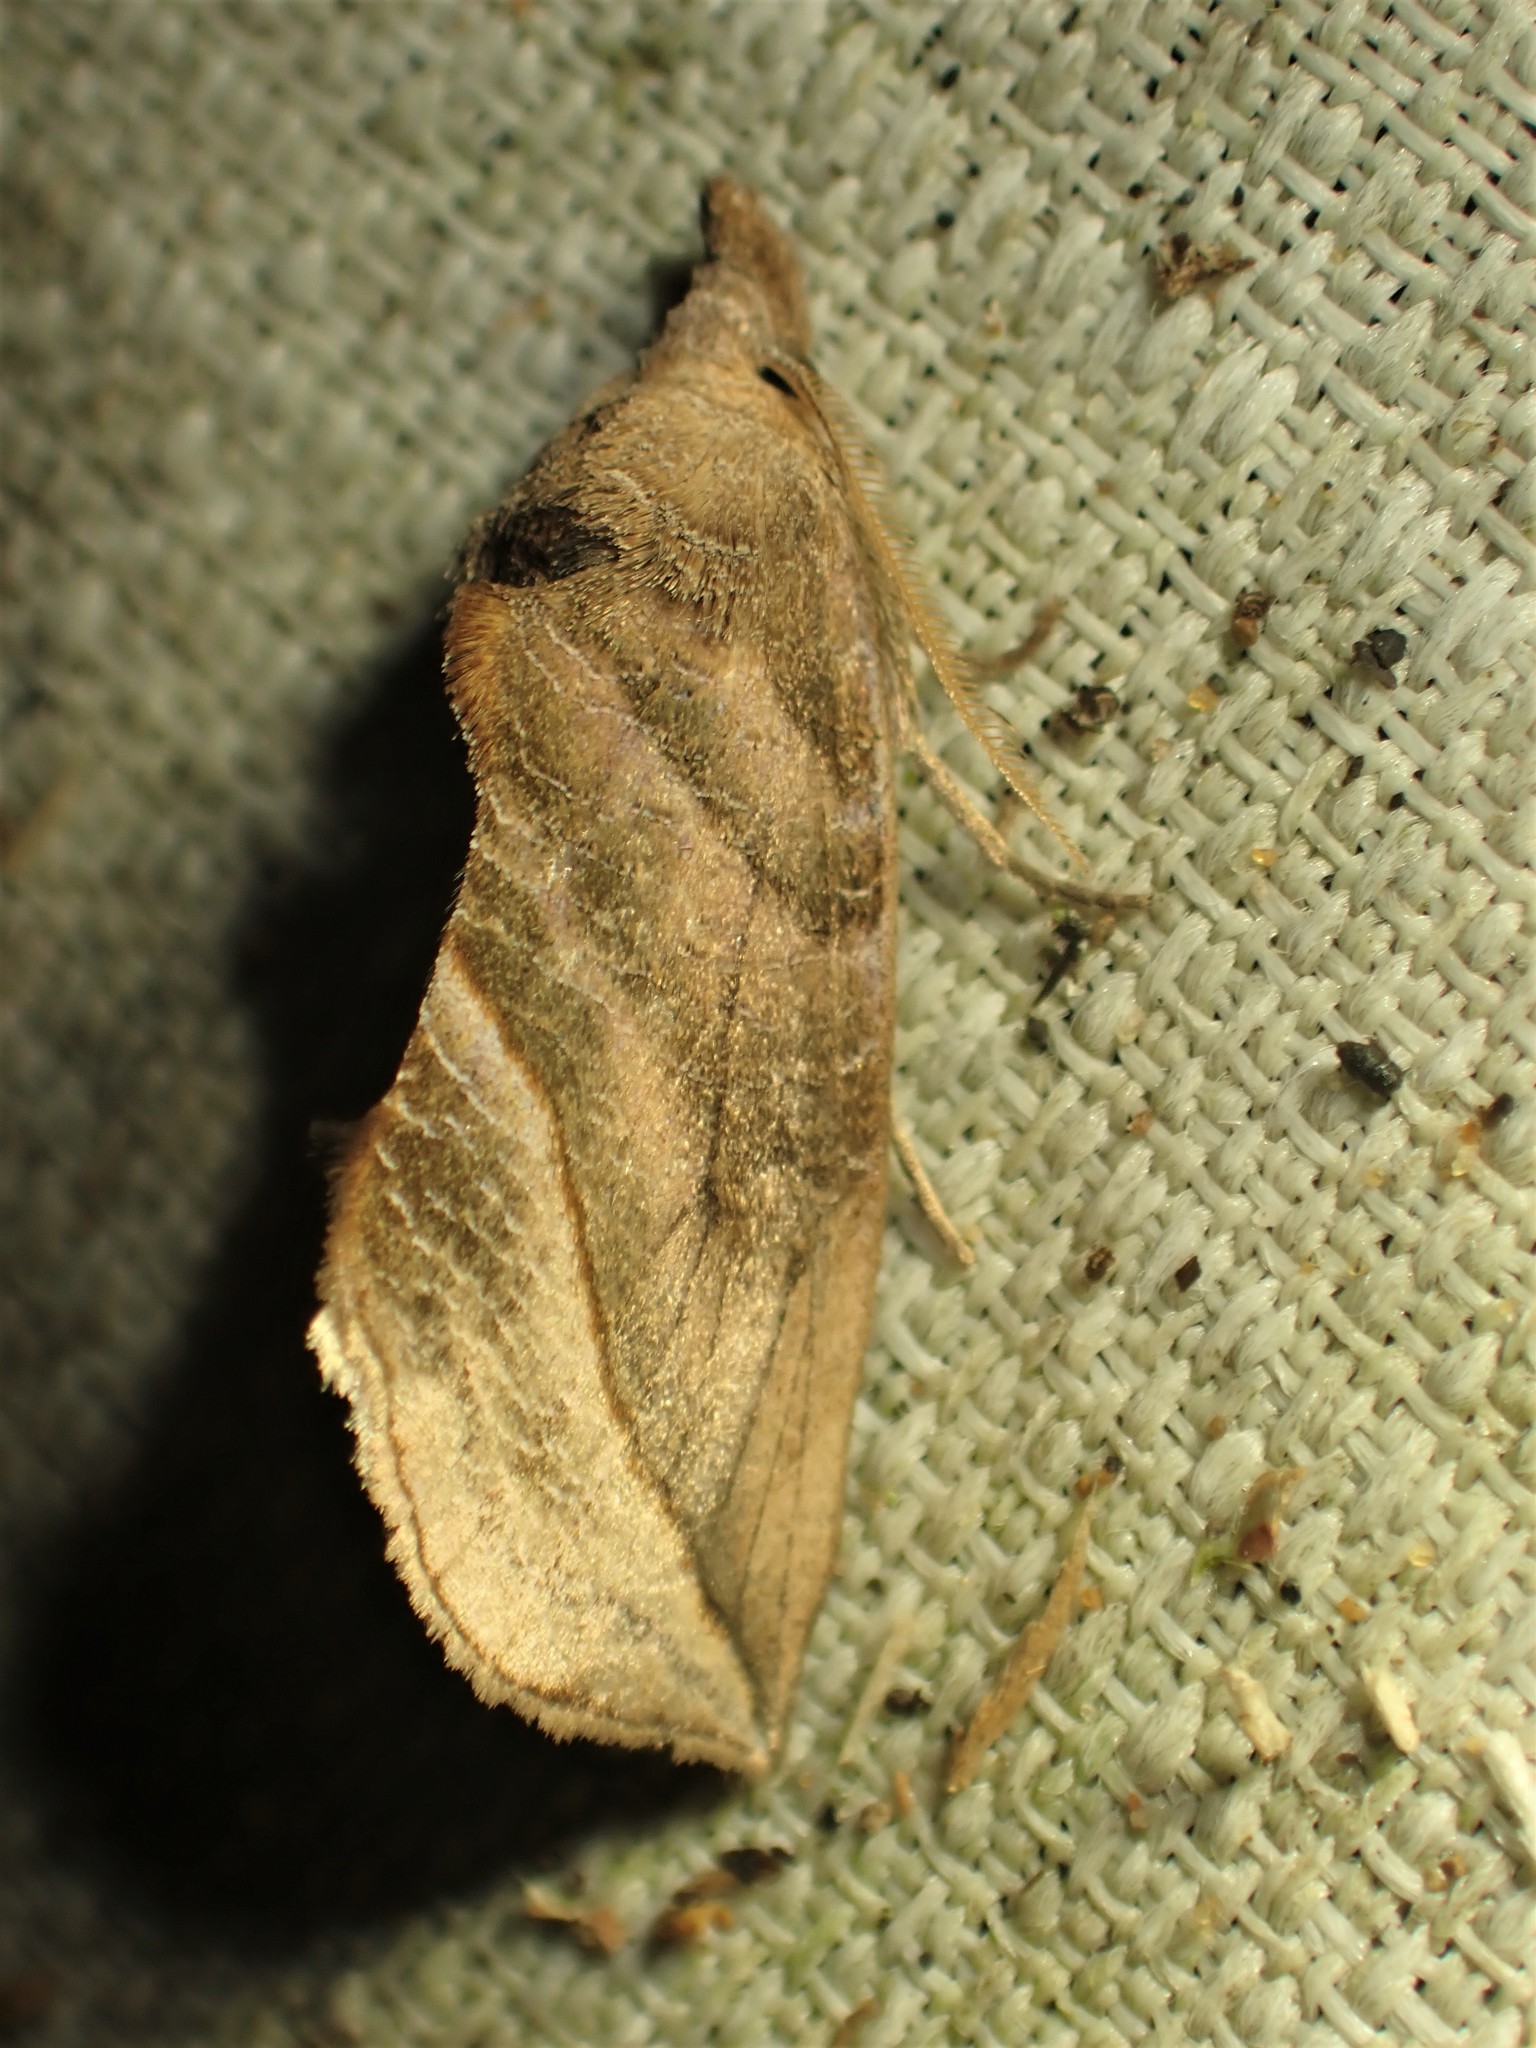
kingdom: Animalia
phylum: Arthropoda
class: Insecta
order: Lepidoptera
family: Erebidae
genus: Calyptra
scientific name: Calyptra canadensis
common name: Canadian owlet
